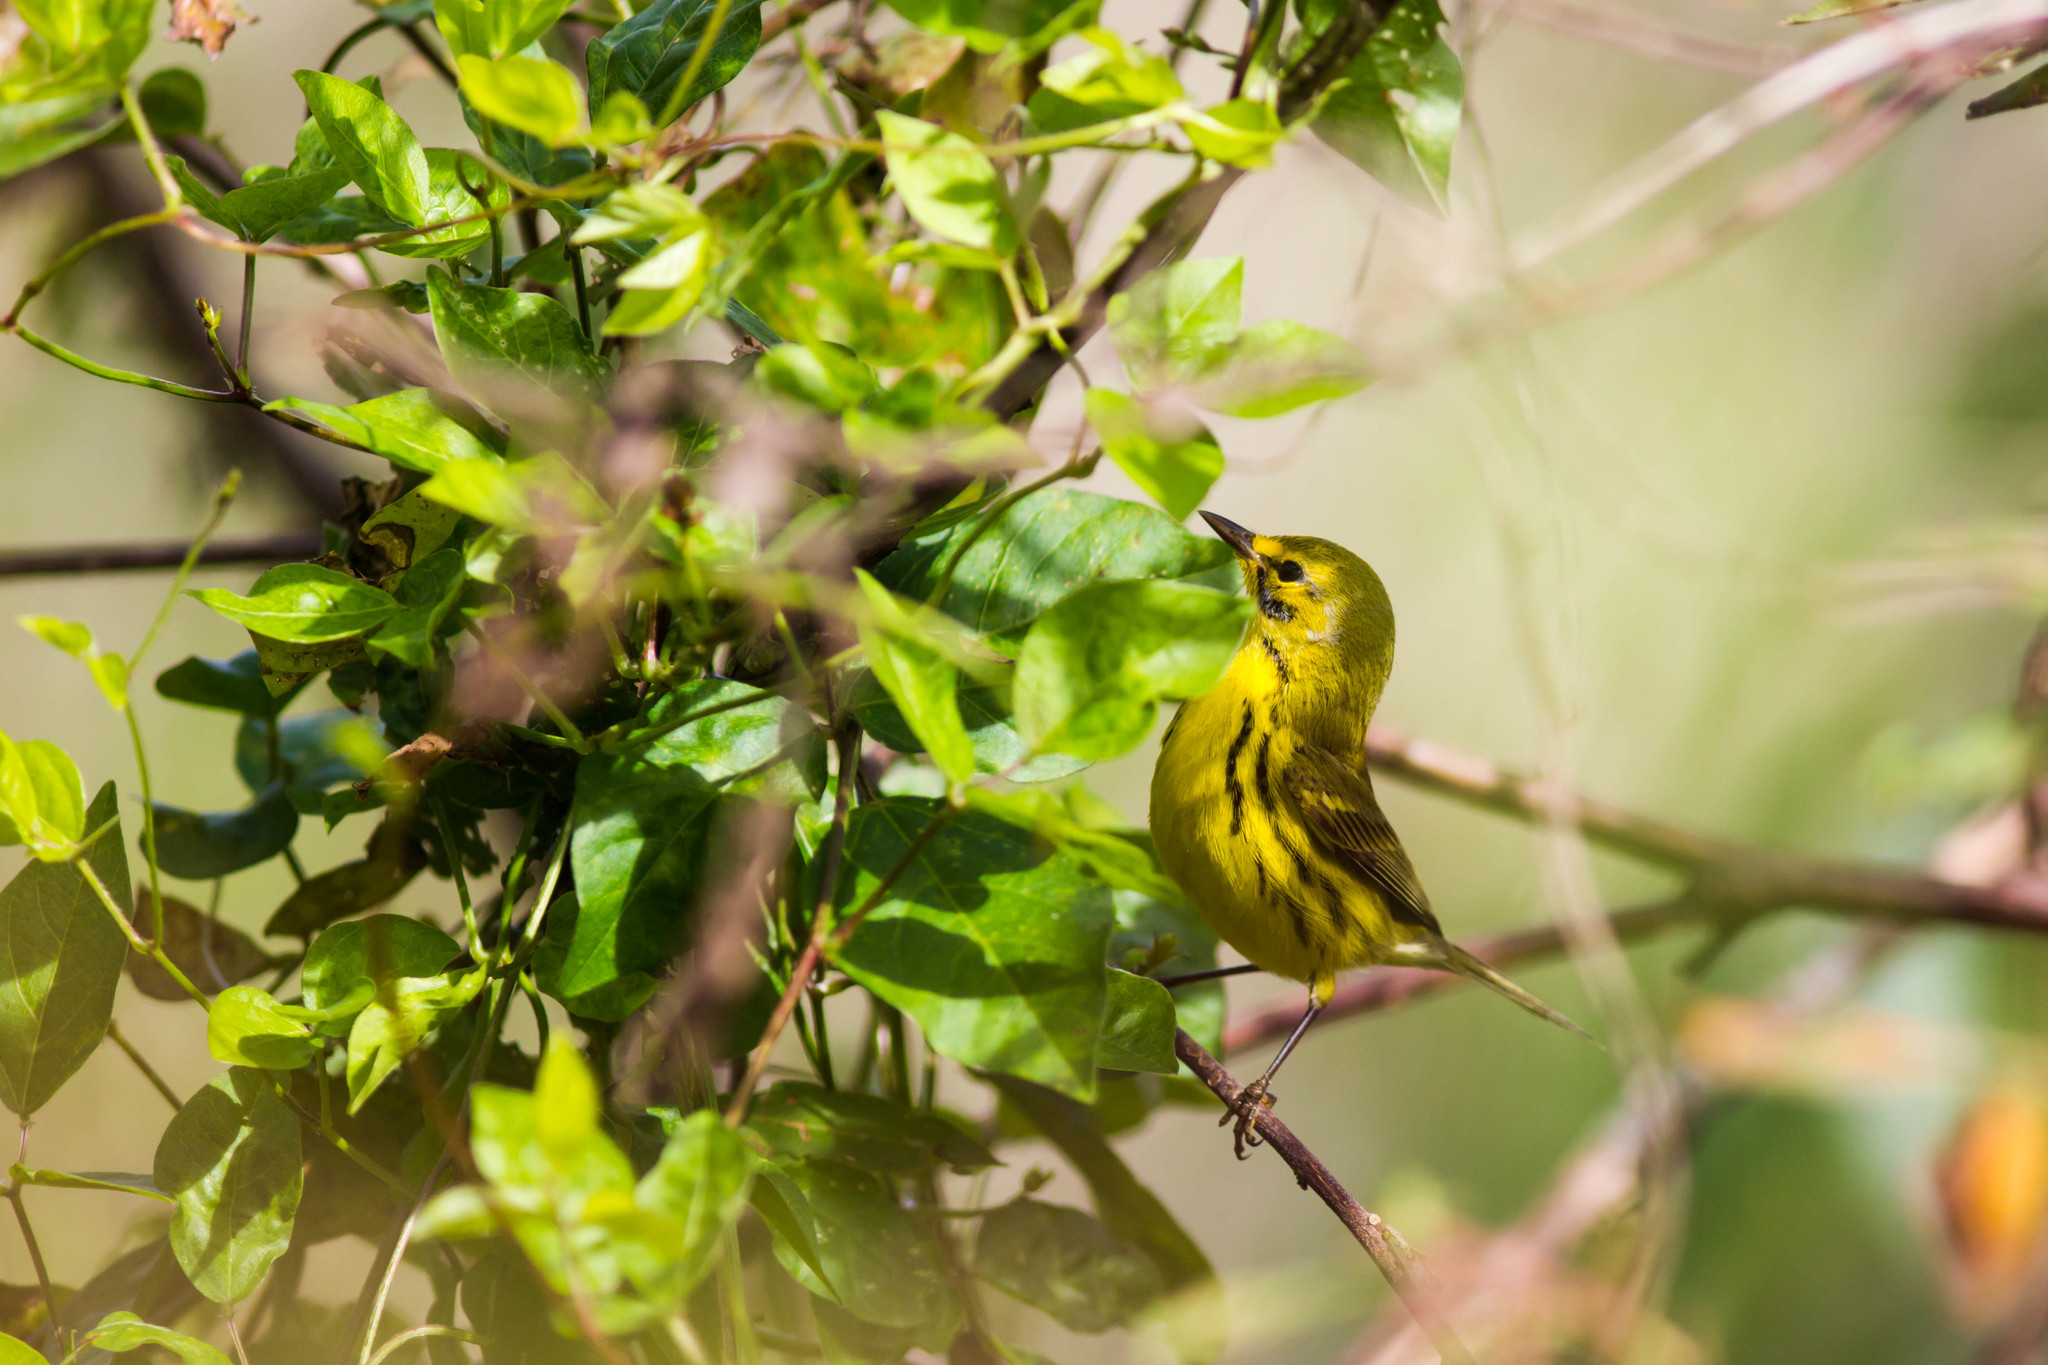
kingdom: Animalia
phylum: Chordata
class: Aves
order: Passeriformes
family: Parulidae
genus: Setophaga
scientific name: Setophaga discolor
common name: Prairie warbler
